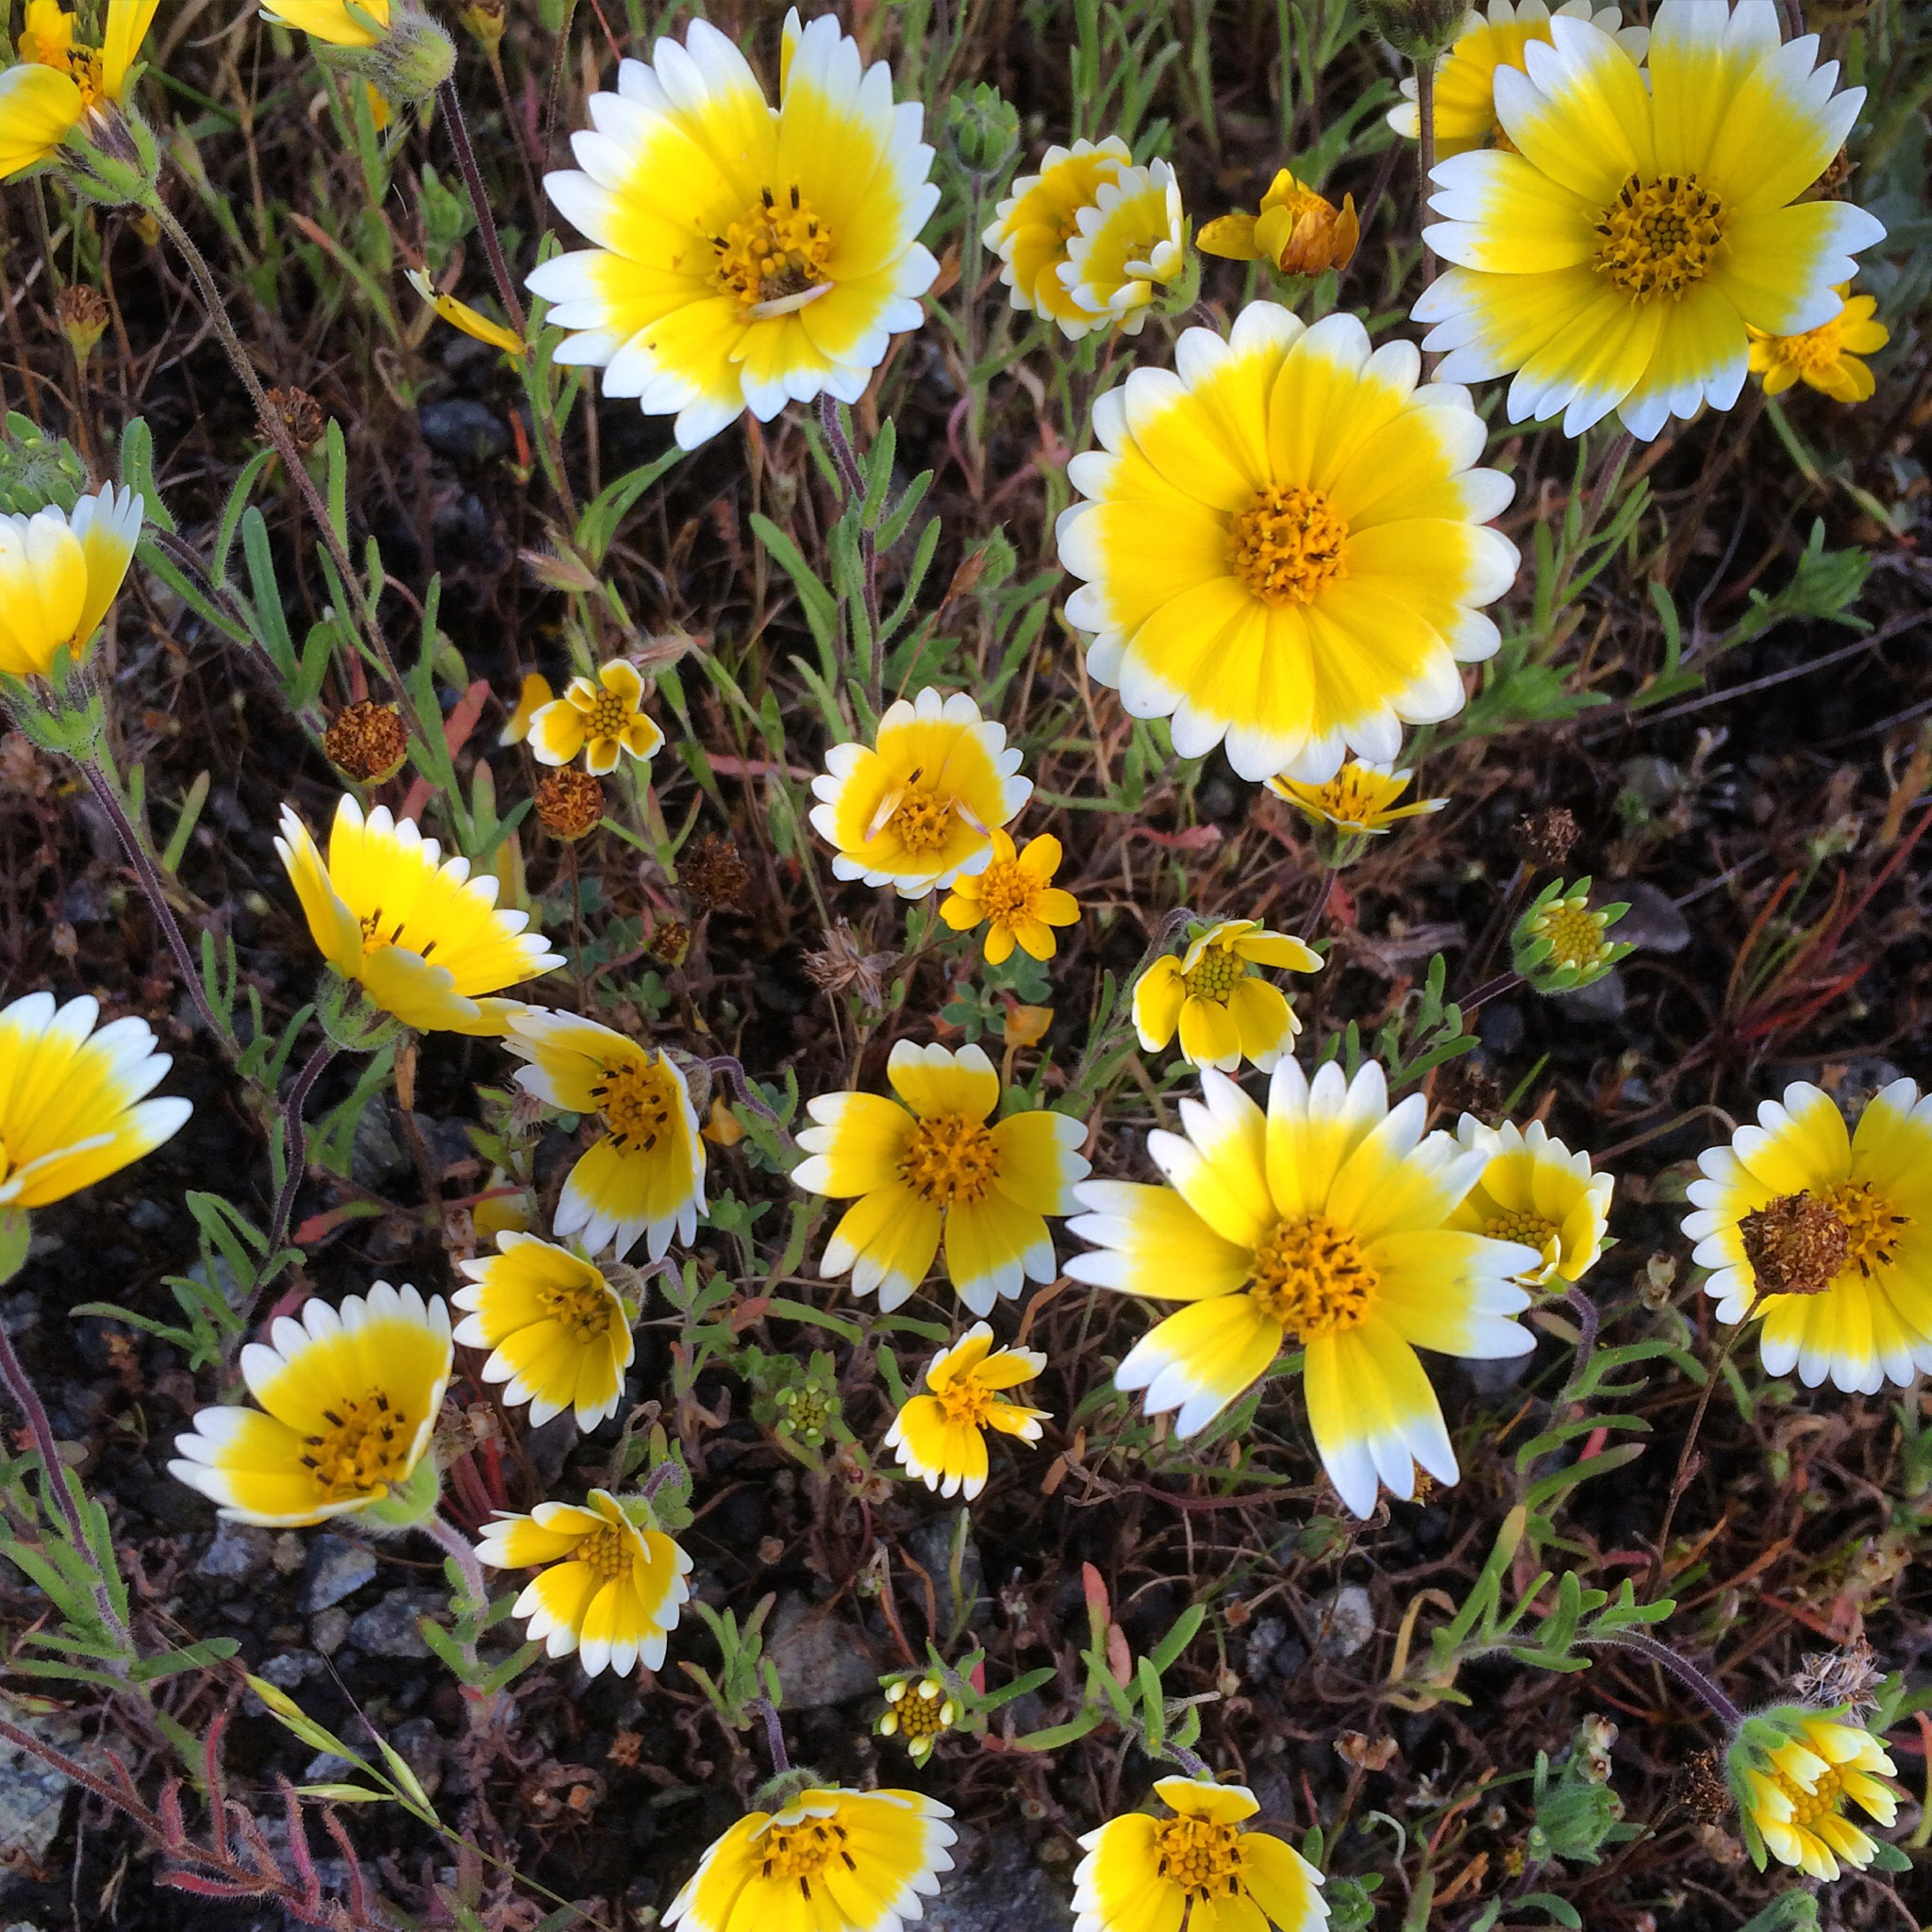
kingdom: Plantae
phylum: Tracheophyta
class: Magnoliopsida
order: Asterales
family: Asteraceae
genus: Layia
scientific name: Layia platyglossa
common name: Tidy-tips
